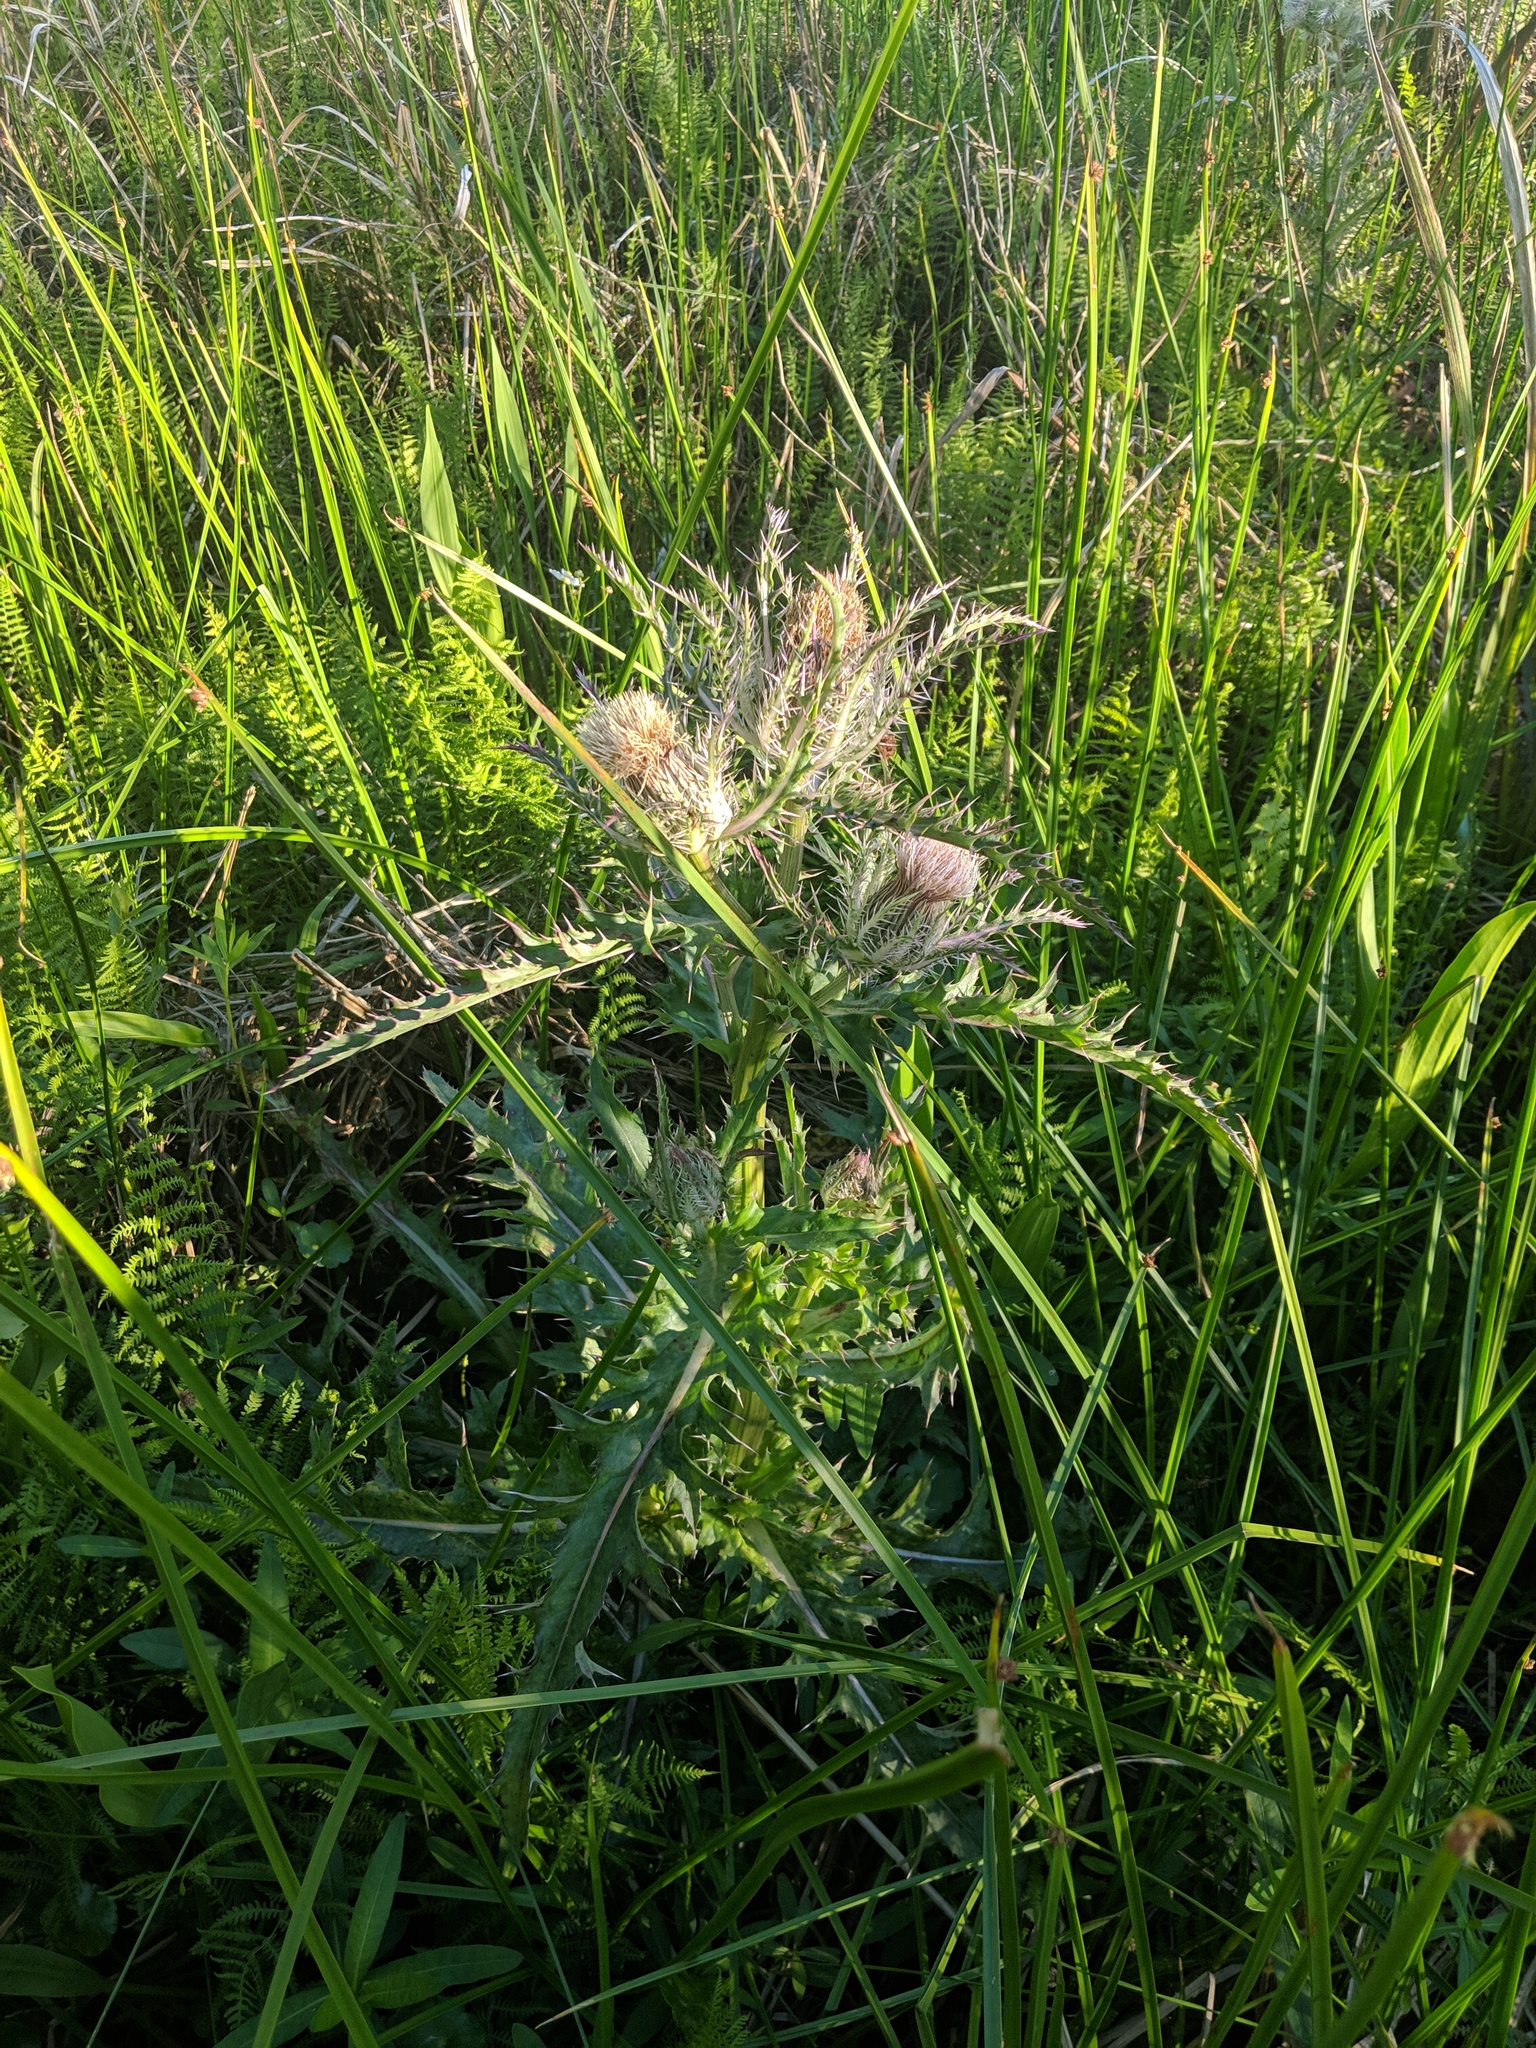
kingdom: Plantae
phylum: Tracheophyta
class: Magnoliopsida
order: Asterales
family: Asteraceae
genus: Cirsium
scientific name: Cirsium horridulum
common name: Bristly thistle
